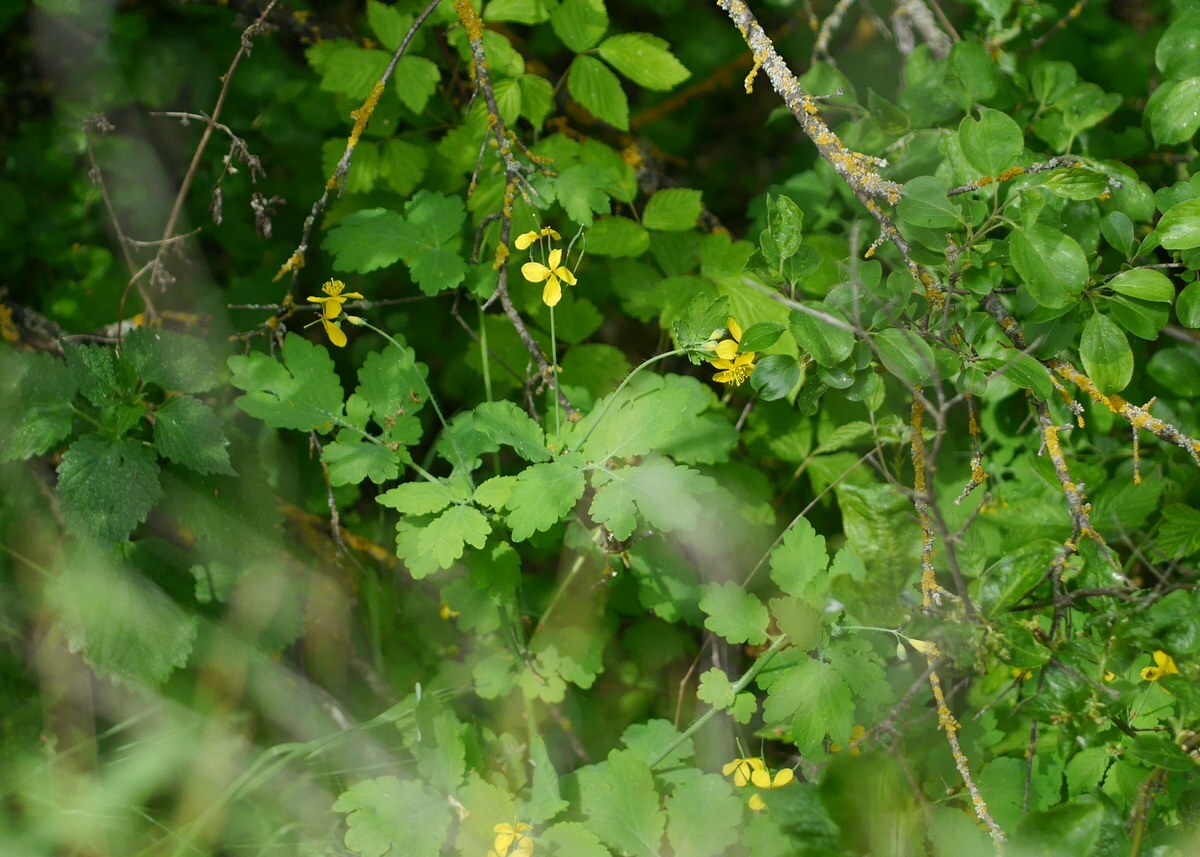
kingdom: Plantae
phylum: Tracheophyta
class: Magnoliopsida
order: Ranunculales
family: Papaveraceae
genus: Chelidonium
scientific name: Chelidonium majus
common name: Greater celandine
